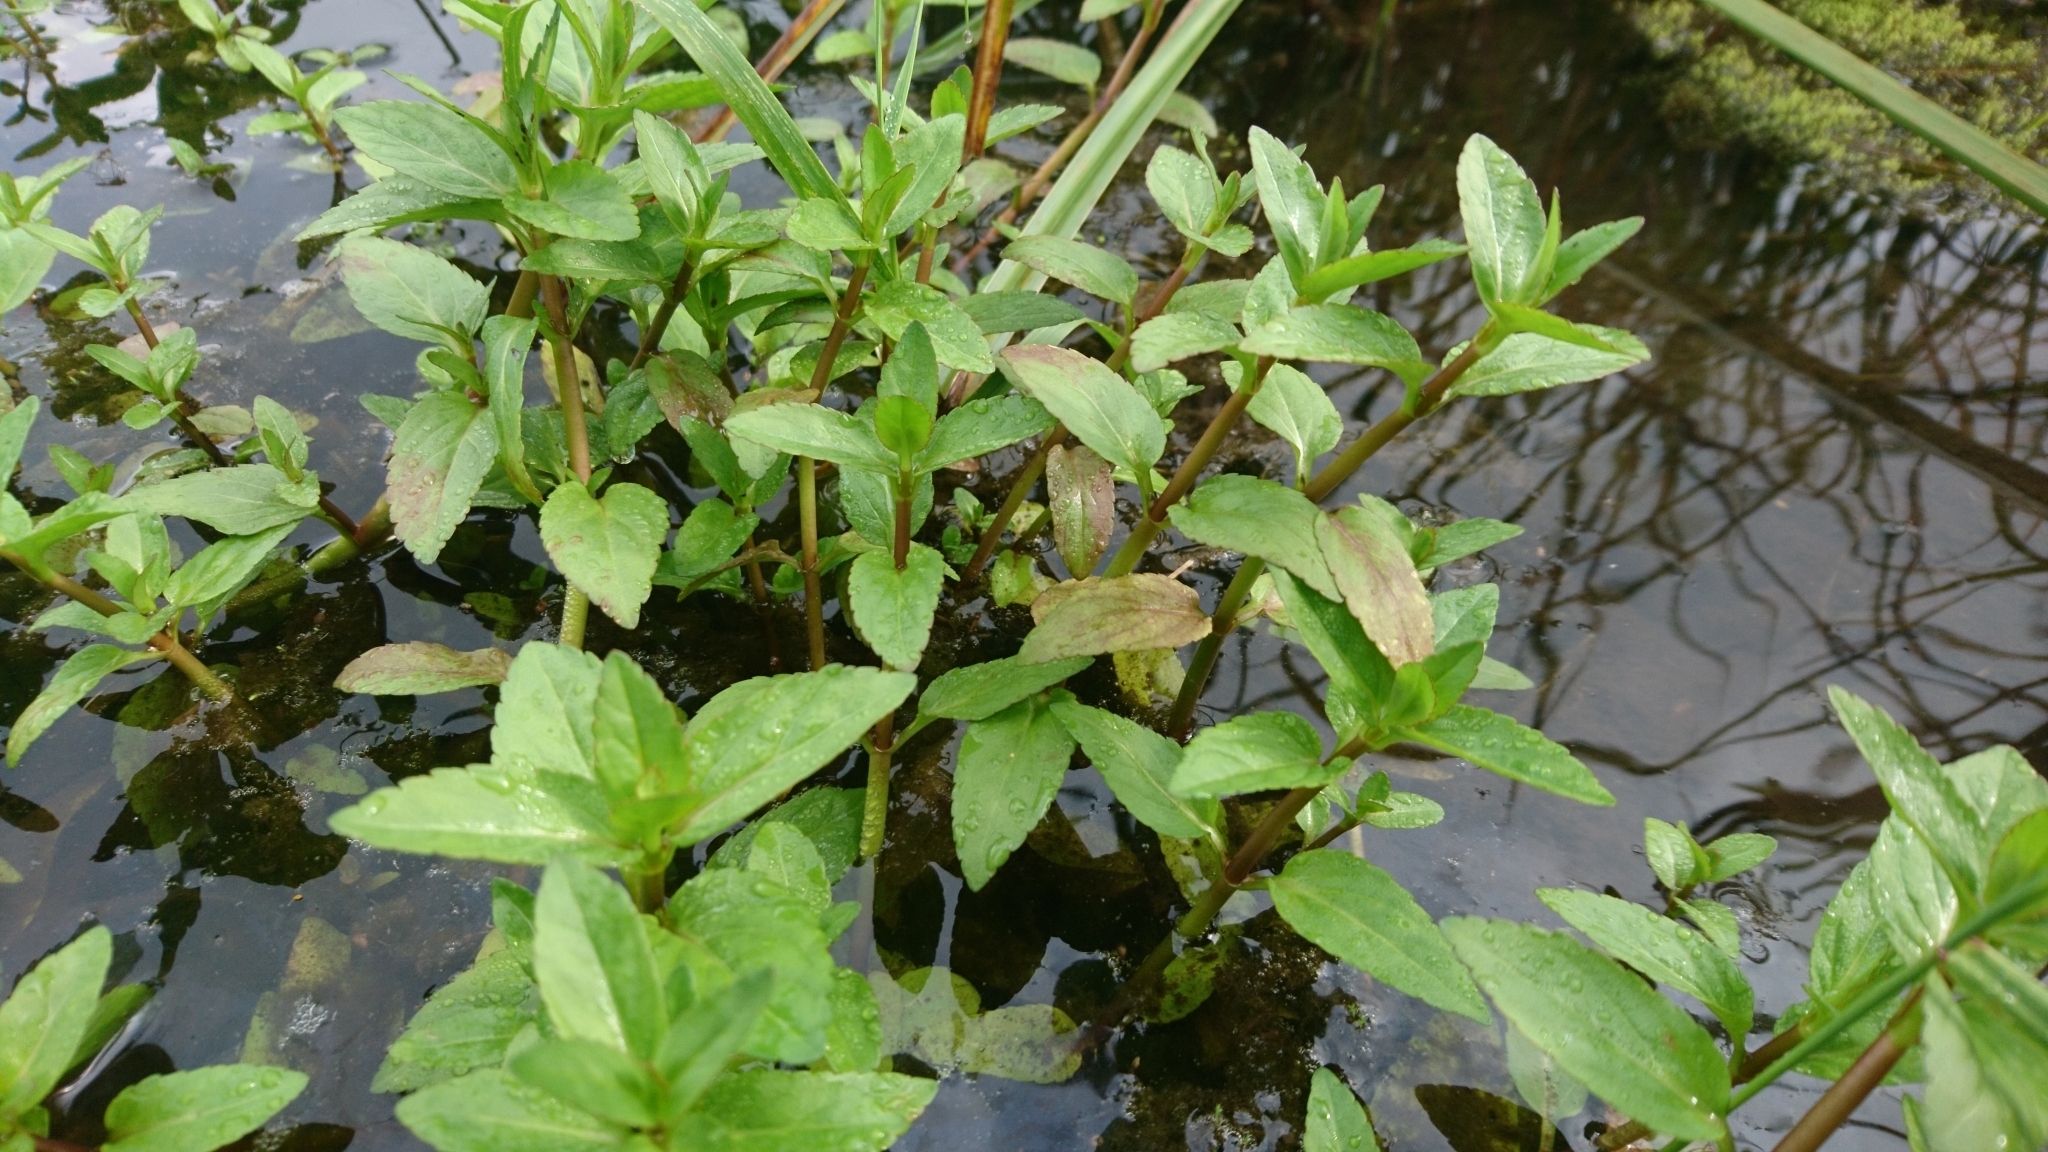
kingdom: Plantae
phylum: Tracheophyta
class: Magnoliopsida
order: Lamiales
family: Plantaginaceae
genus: Veronica
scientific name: Veronica americana
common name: American brooklime
